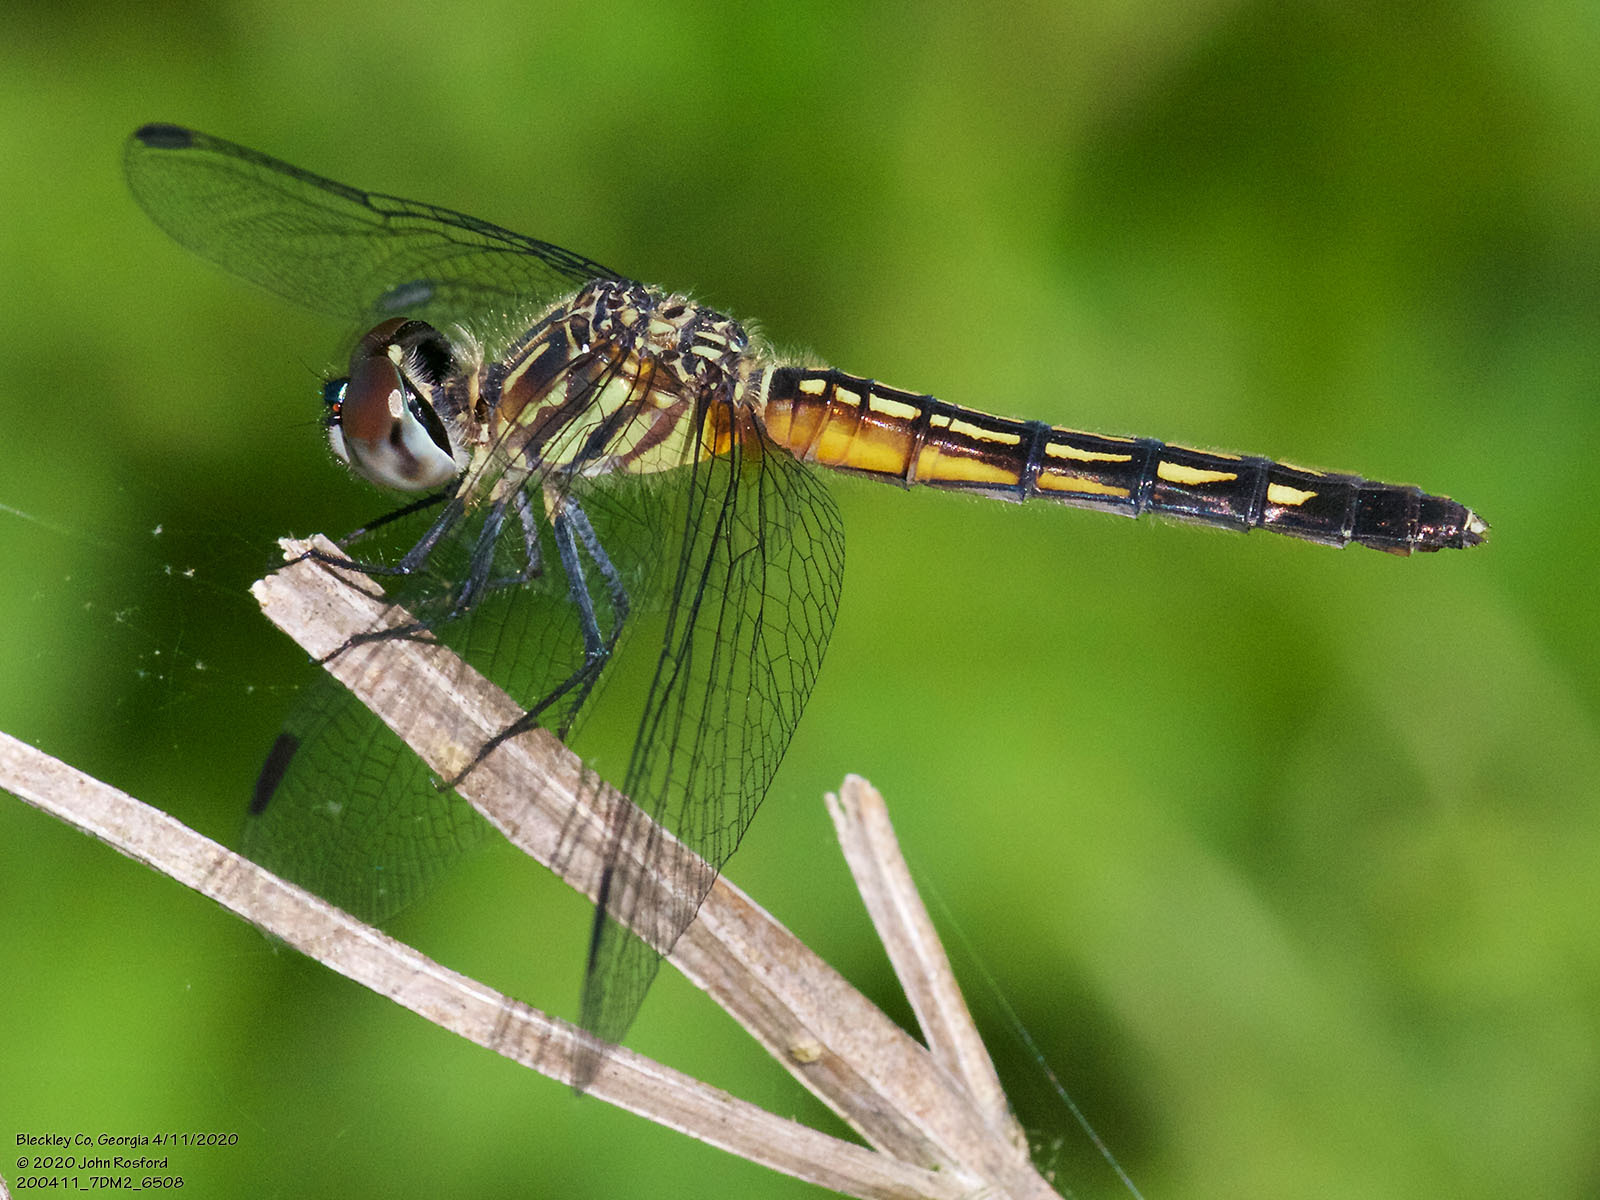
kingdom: Animalia
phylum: Arthropoda
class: Insecta
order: Odonata
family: Libellulidae
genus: Pachydiplax
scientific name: Pachydiplax longipennis
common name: Blue dasher
